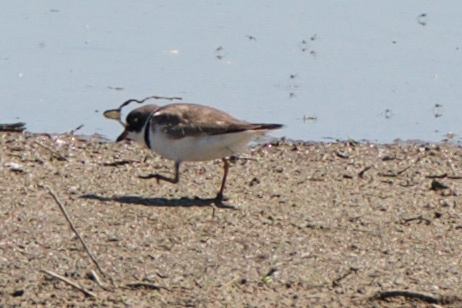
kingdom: Animalia
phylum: Chordata
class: Aves
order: Charadriiformes
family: Charadriidae
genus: Charadrius
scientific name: Charadrius semipalmatus
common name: Semipalmated plover
